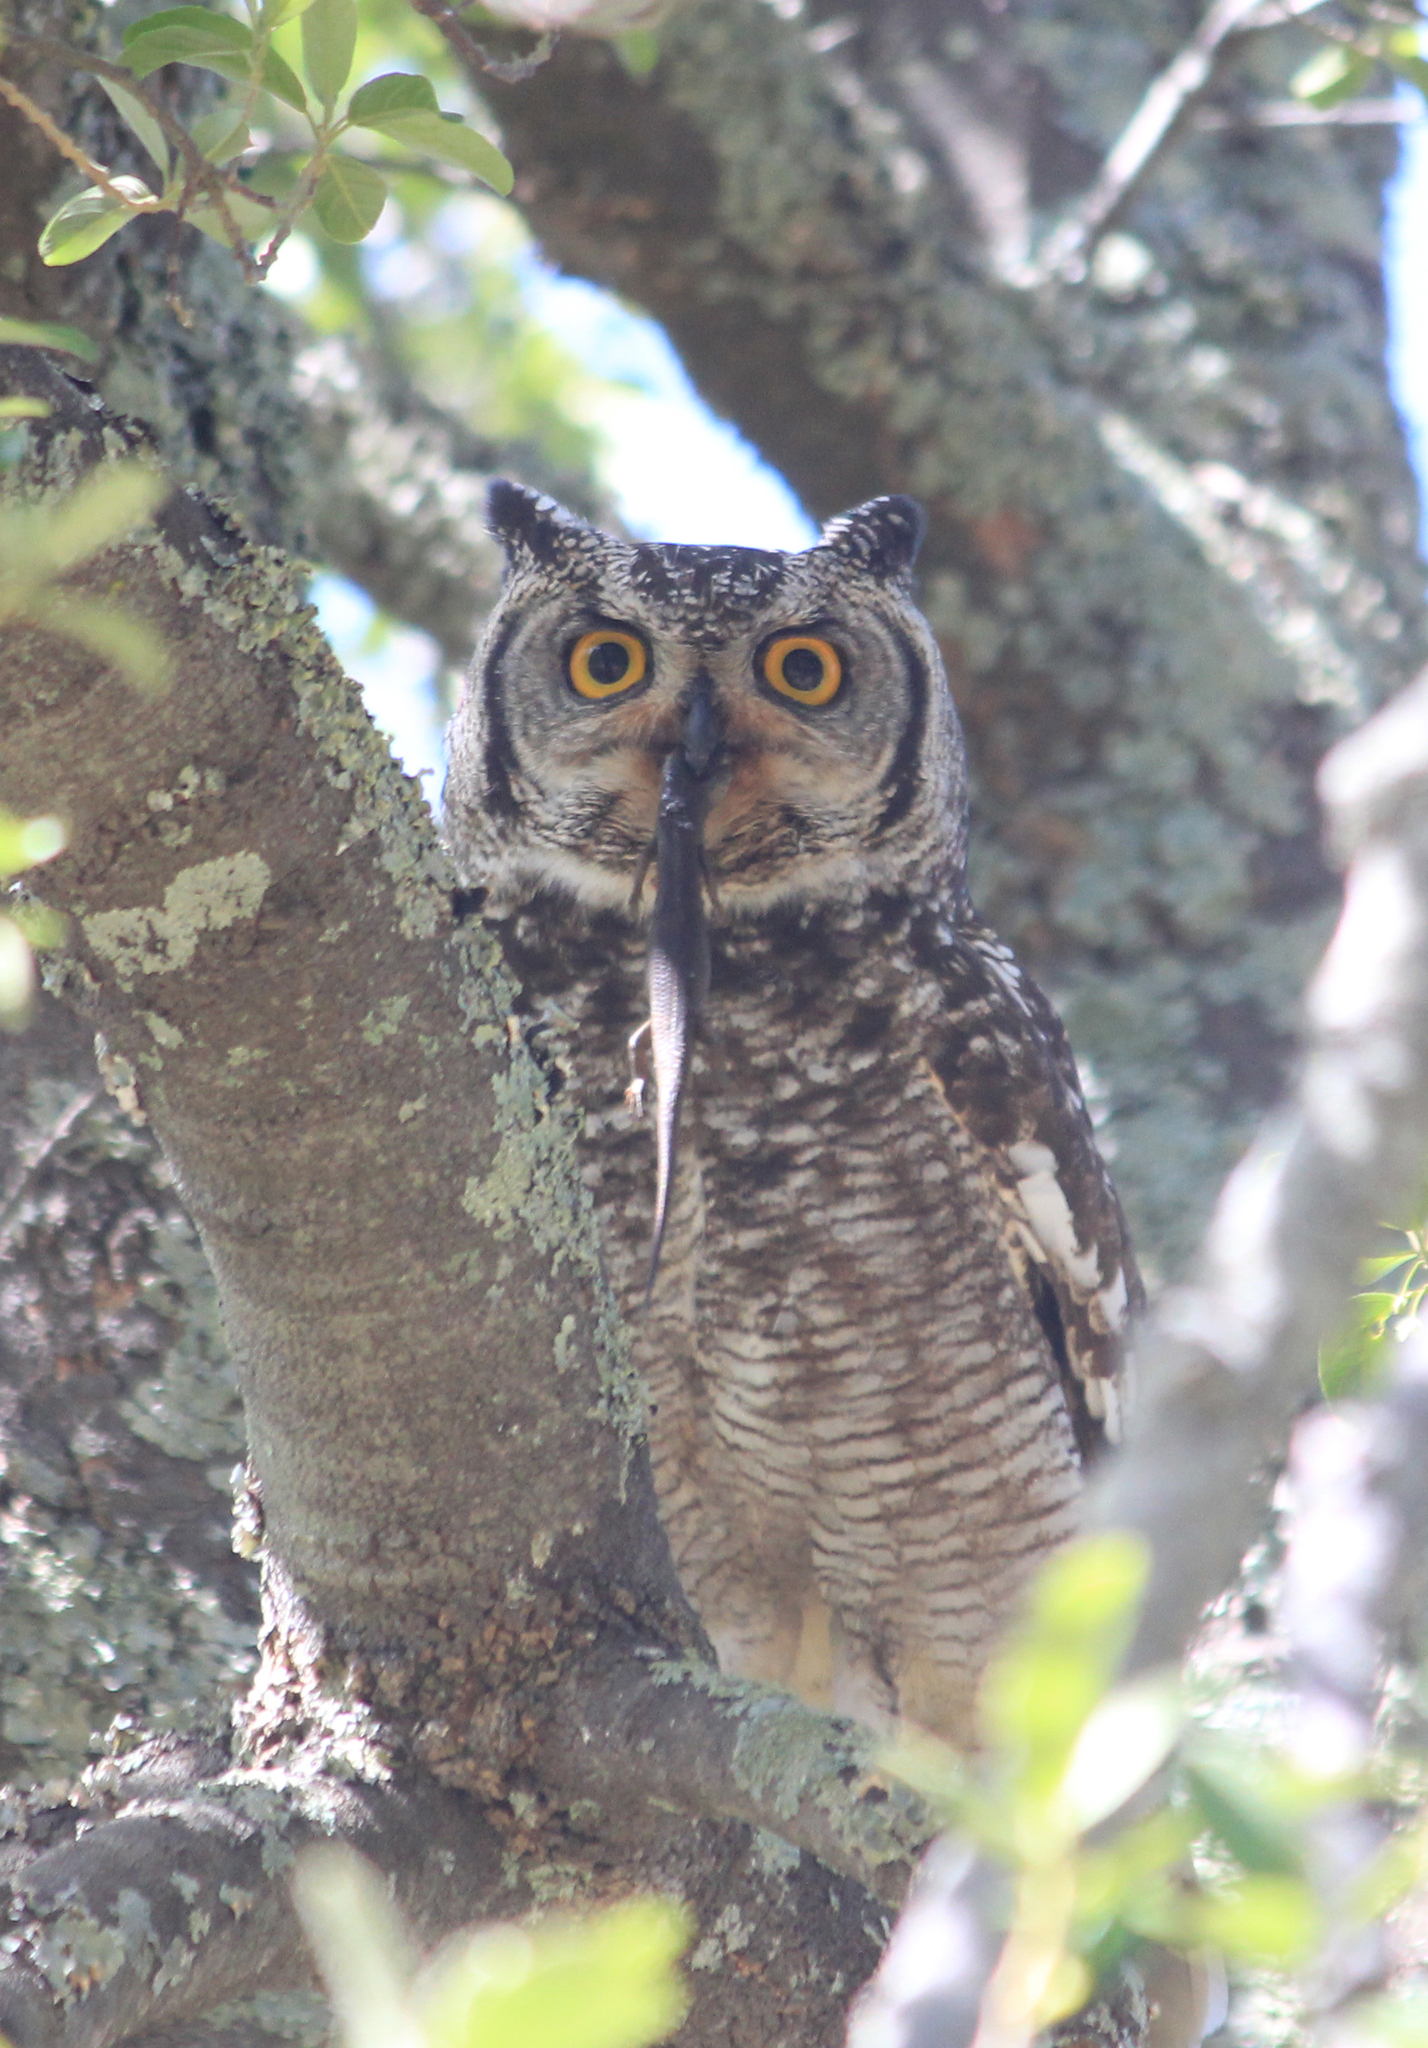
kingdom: Animalia
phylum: Chordata
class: Squamata
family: Scincidae
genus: Trachylepis
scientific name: Trachylepis capensis
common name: Cape skink
